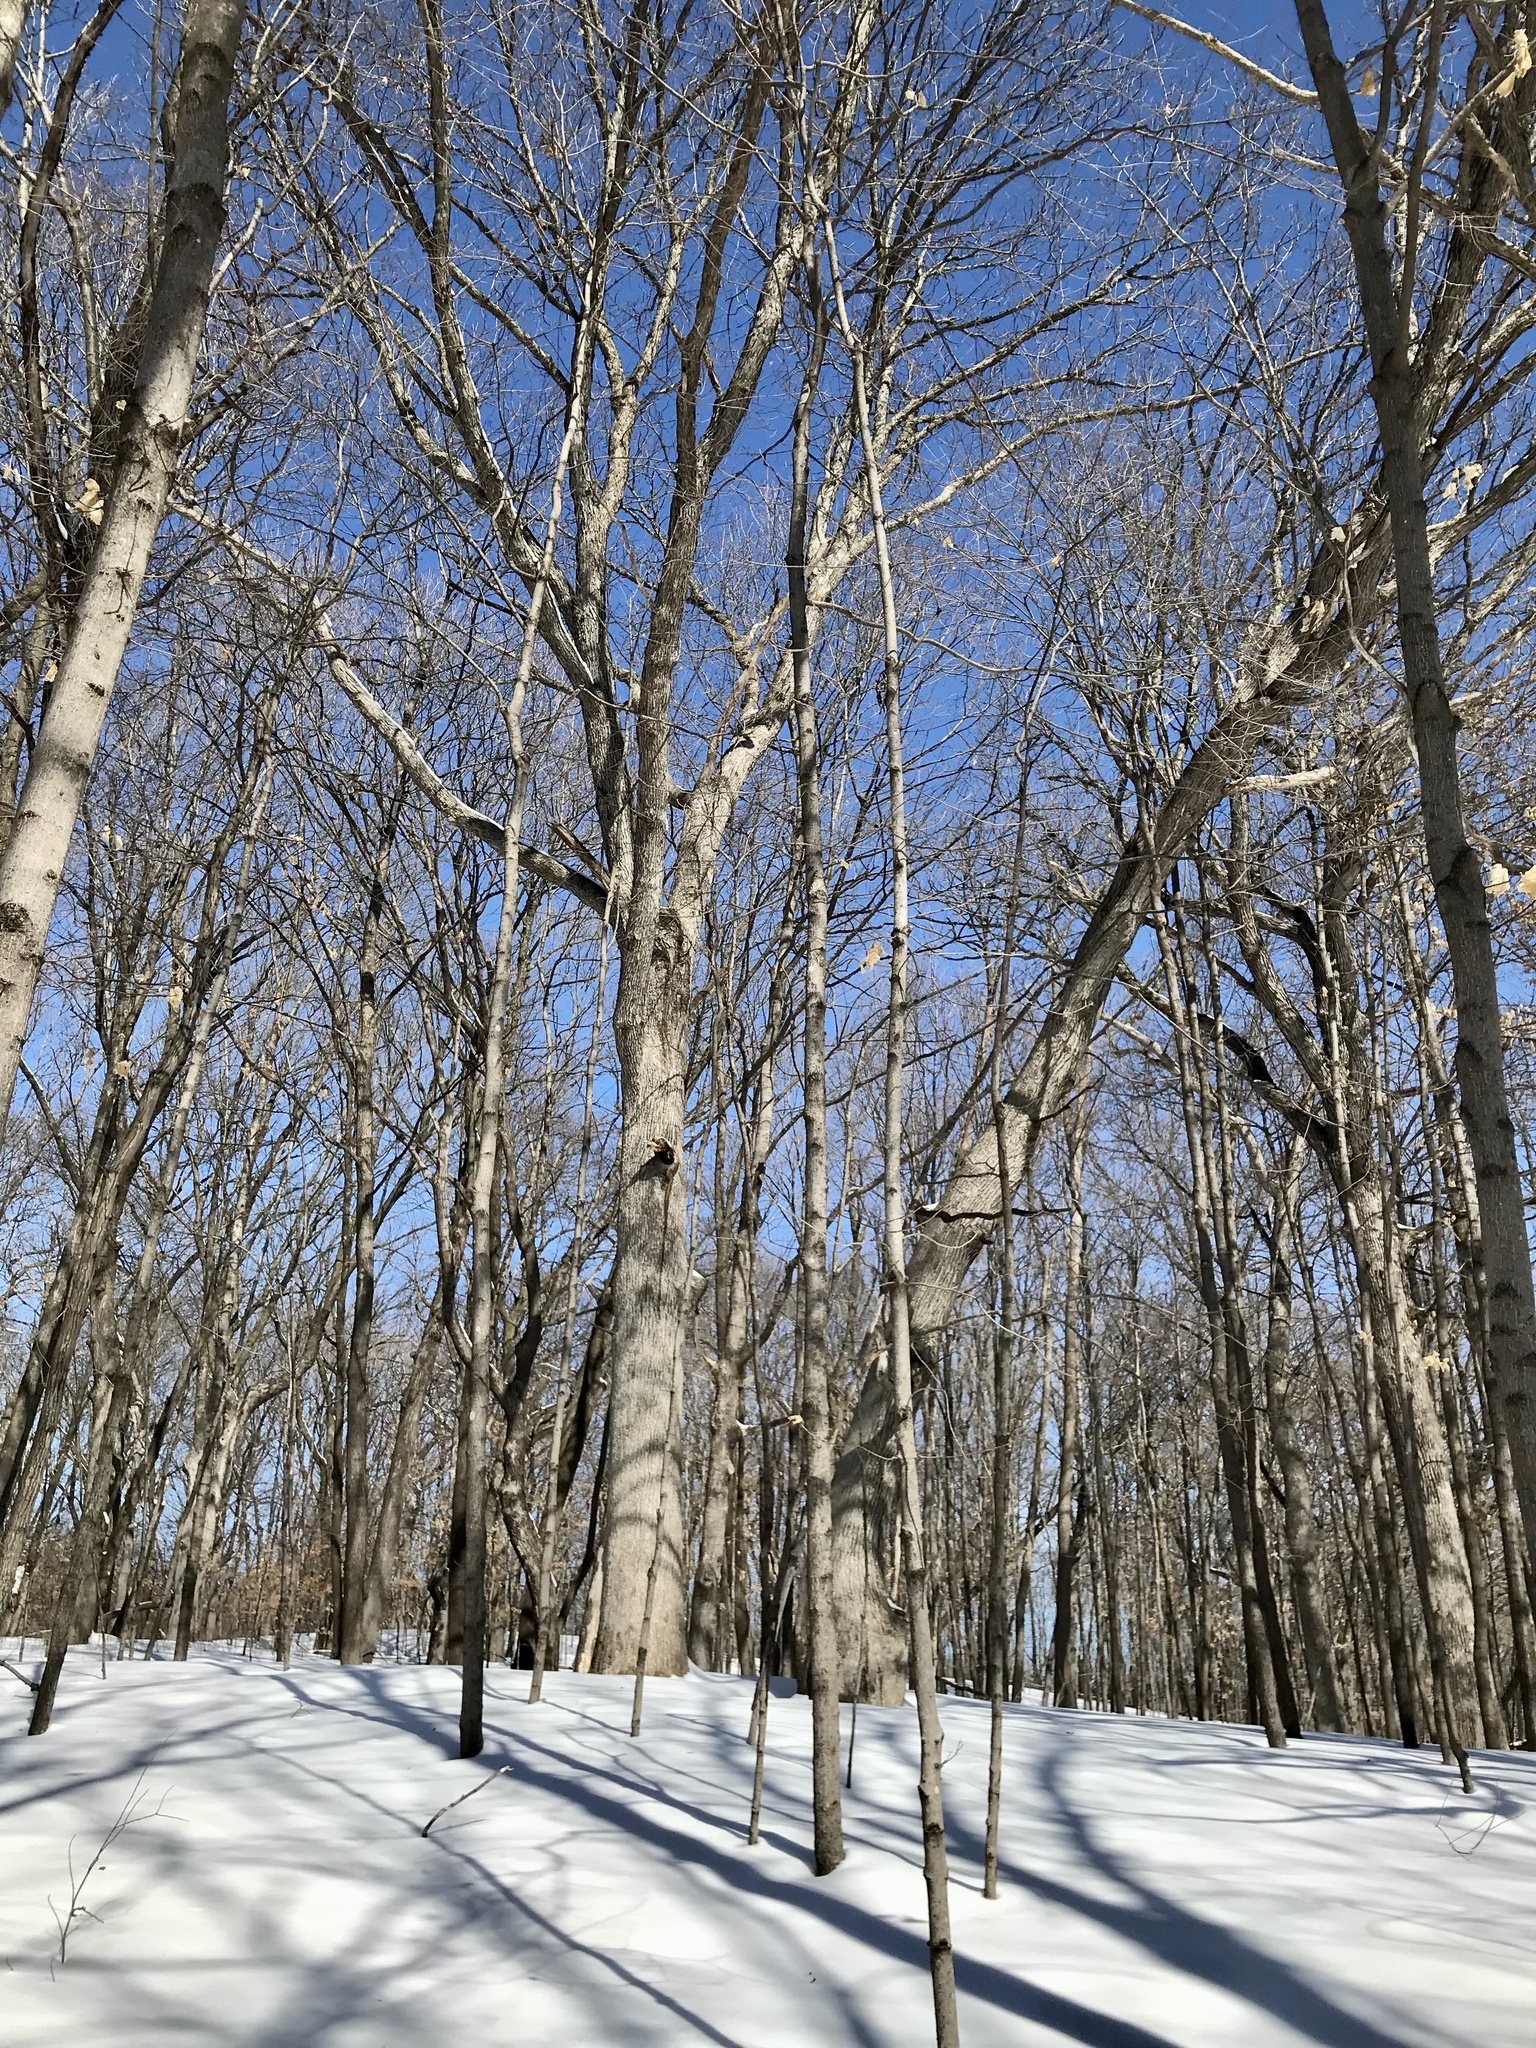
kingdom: Plantae
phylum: Tracheophyta
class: Magnoliopsida
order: Fagales
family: Fagaceae
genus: Quercus
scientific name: Quercus alba
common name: White oak
